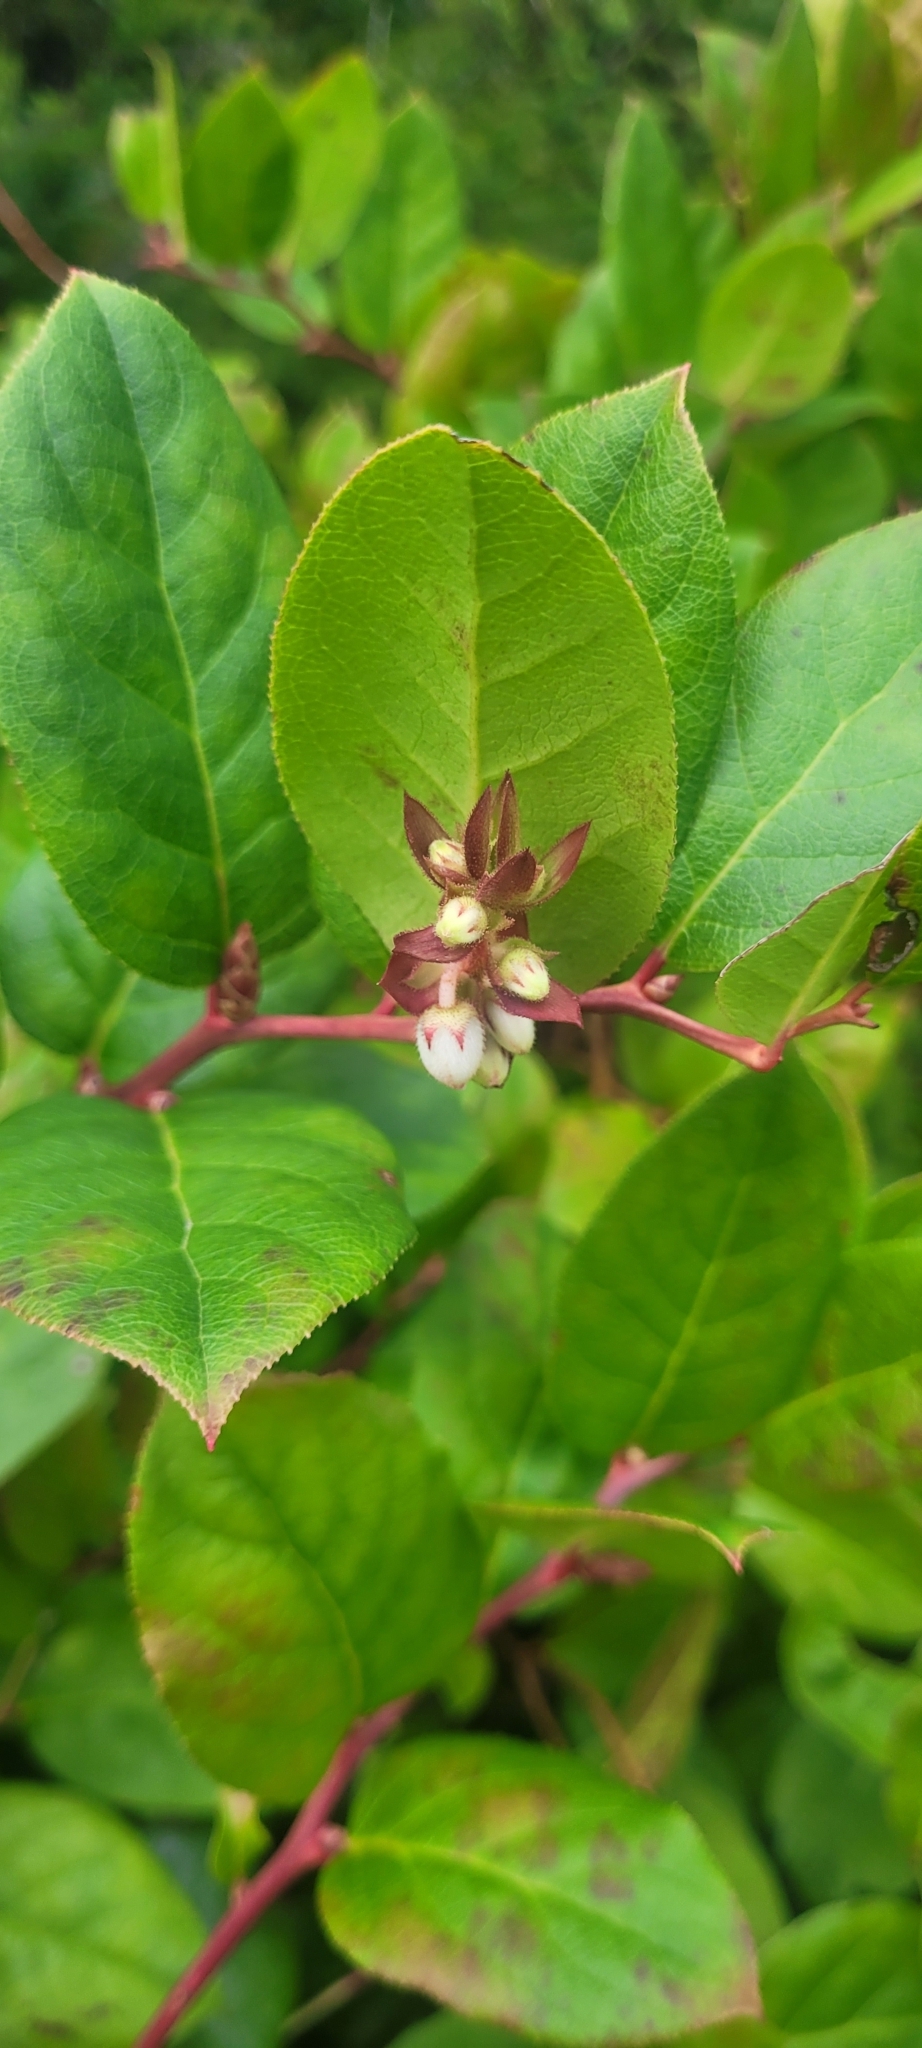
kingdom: Plantae
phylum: Tracheophyta
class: Magnoliopsida
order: Ericales
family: Ericaceae
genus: Gaultheria
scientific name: Gaultheria shallon
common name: Shallon
